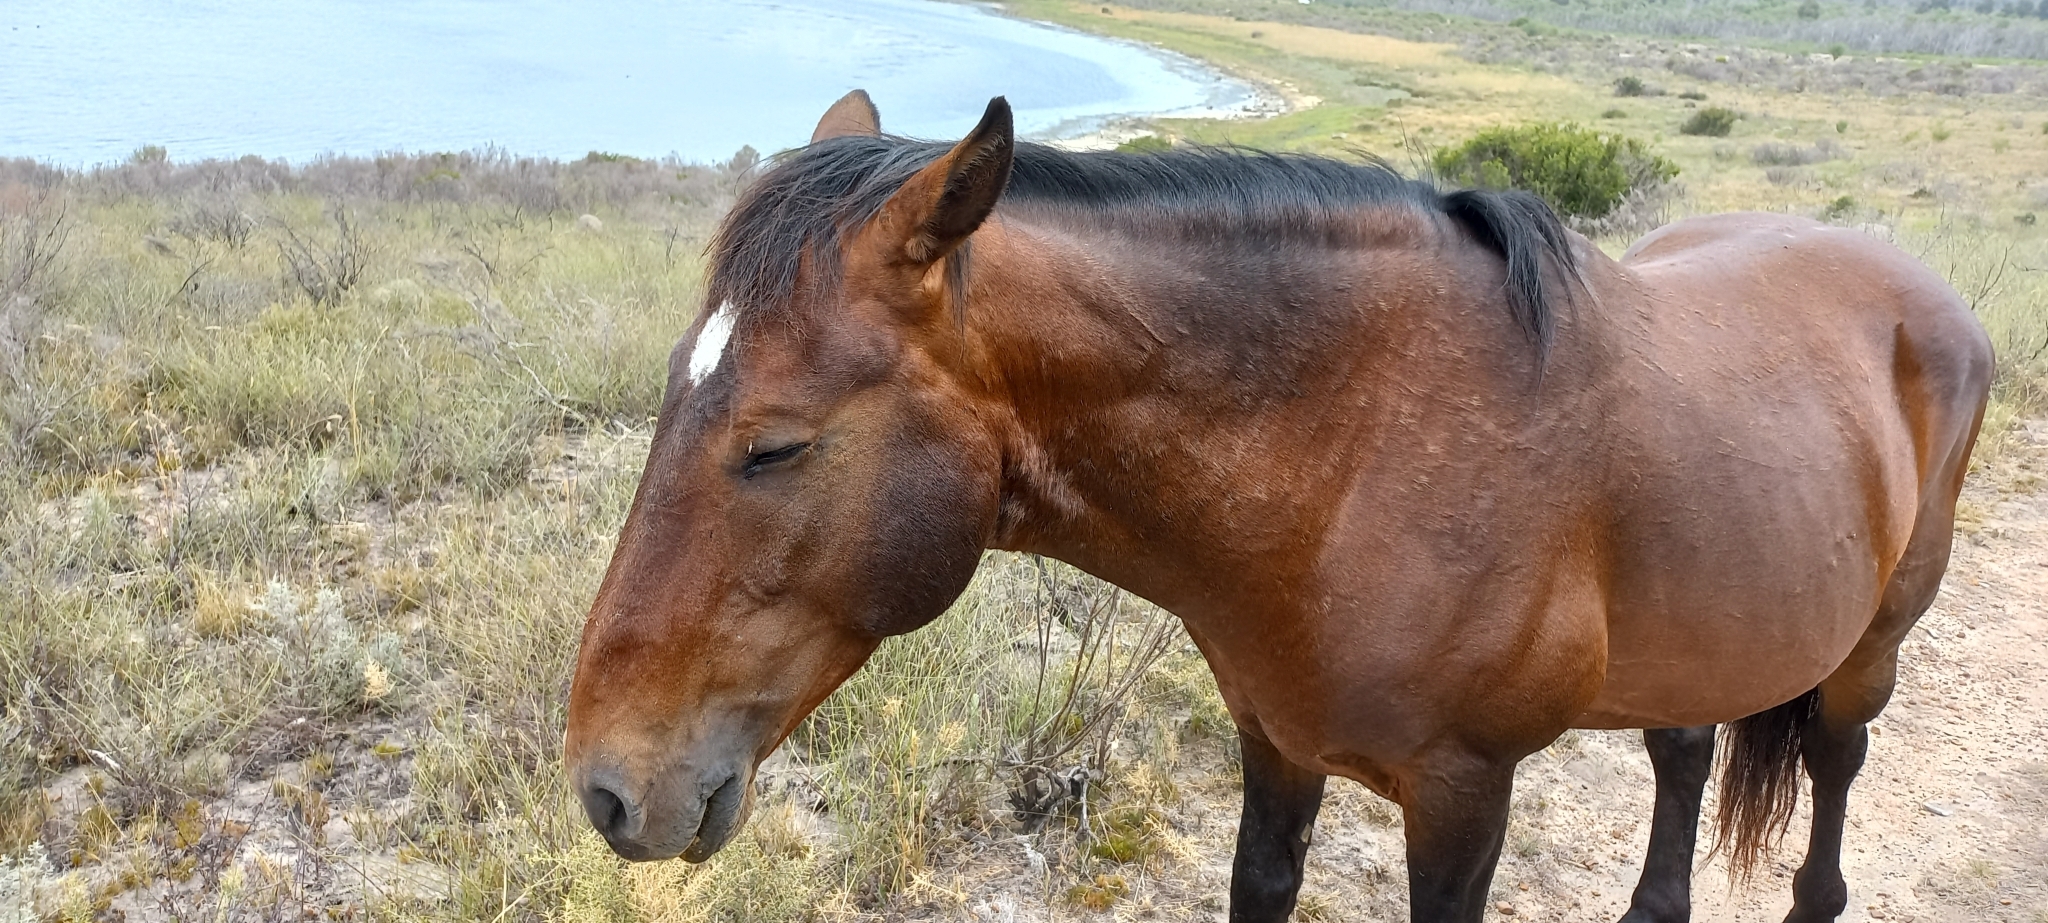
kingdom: Animalia
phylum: Chordata
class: Mammalia
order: Perissodactyla
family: Equidae
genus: Equus
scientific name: Equus caballus
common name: Horse
